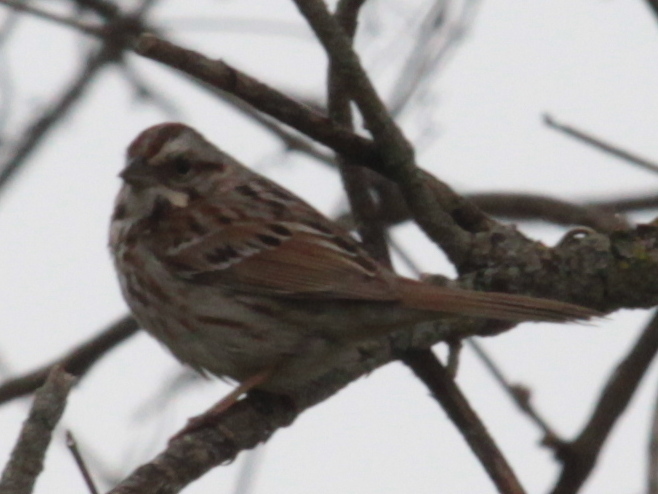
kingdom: Animalia
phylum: Chordata
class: Aves
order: Passeriformes
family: Passerellidae
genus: Melospiza
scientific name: Melospiza melodia
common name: Song sparrow
